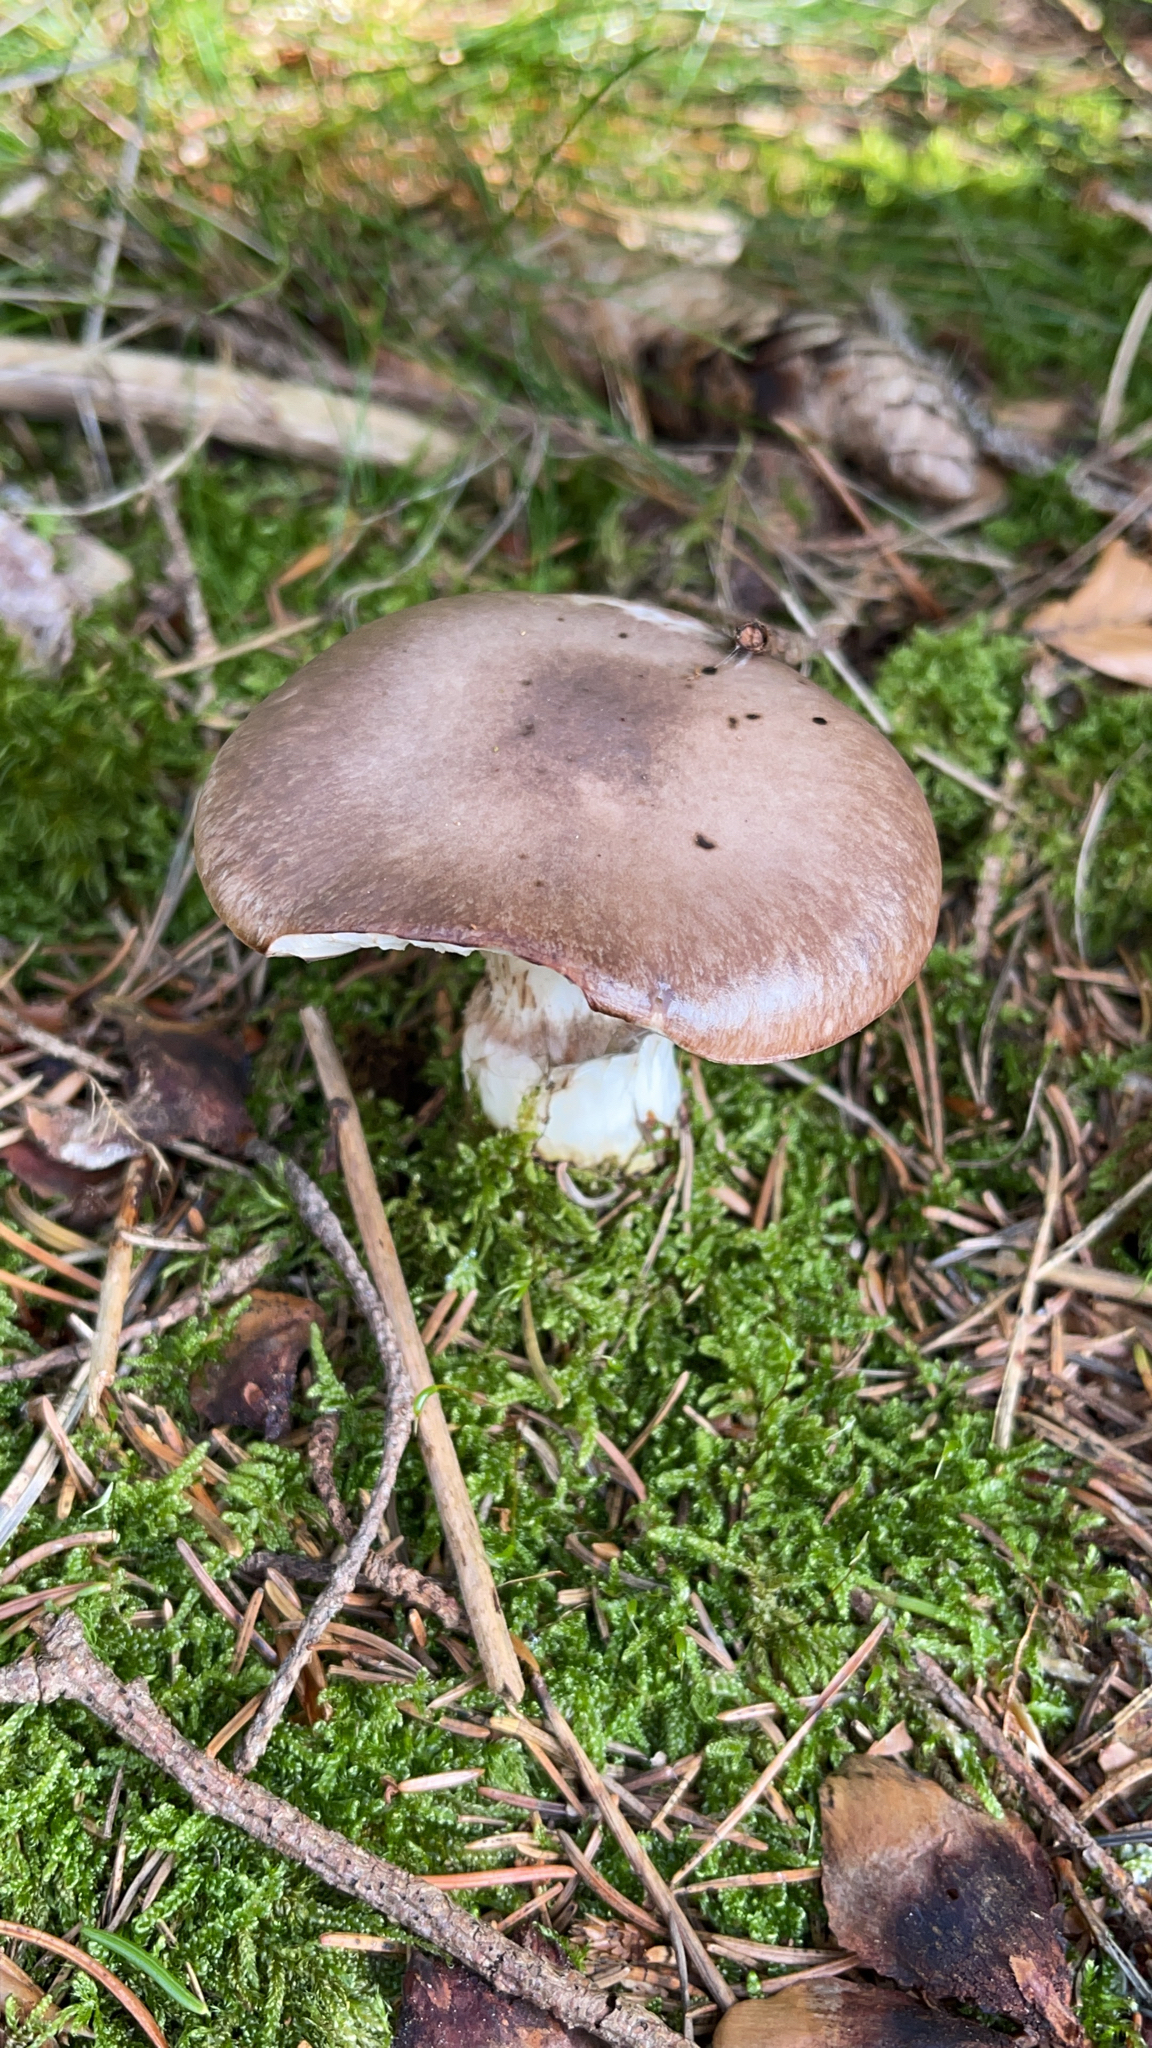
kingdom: Fungi
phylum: Basidiomycota
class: Agaricomycetes
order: Boletales
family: Gomphidiaceae
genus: Gomphidius
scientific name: Gomphidius glutinosus
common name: Slimy spike
